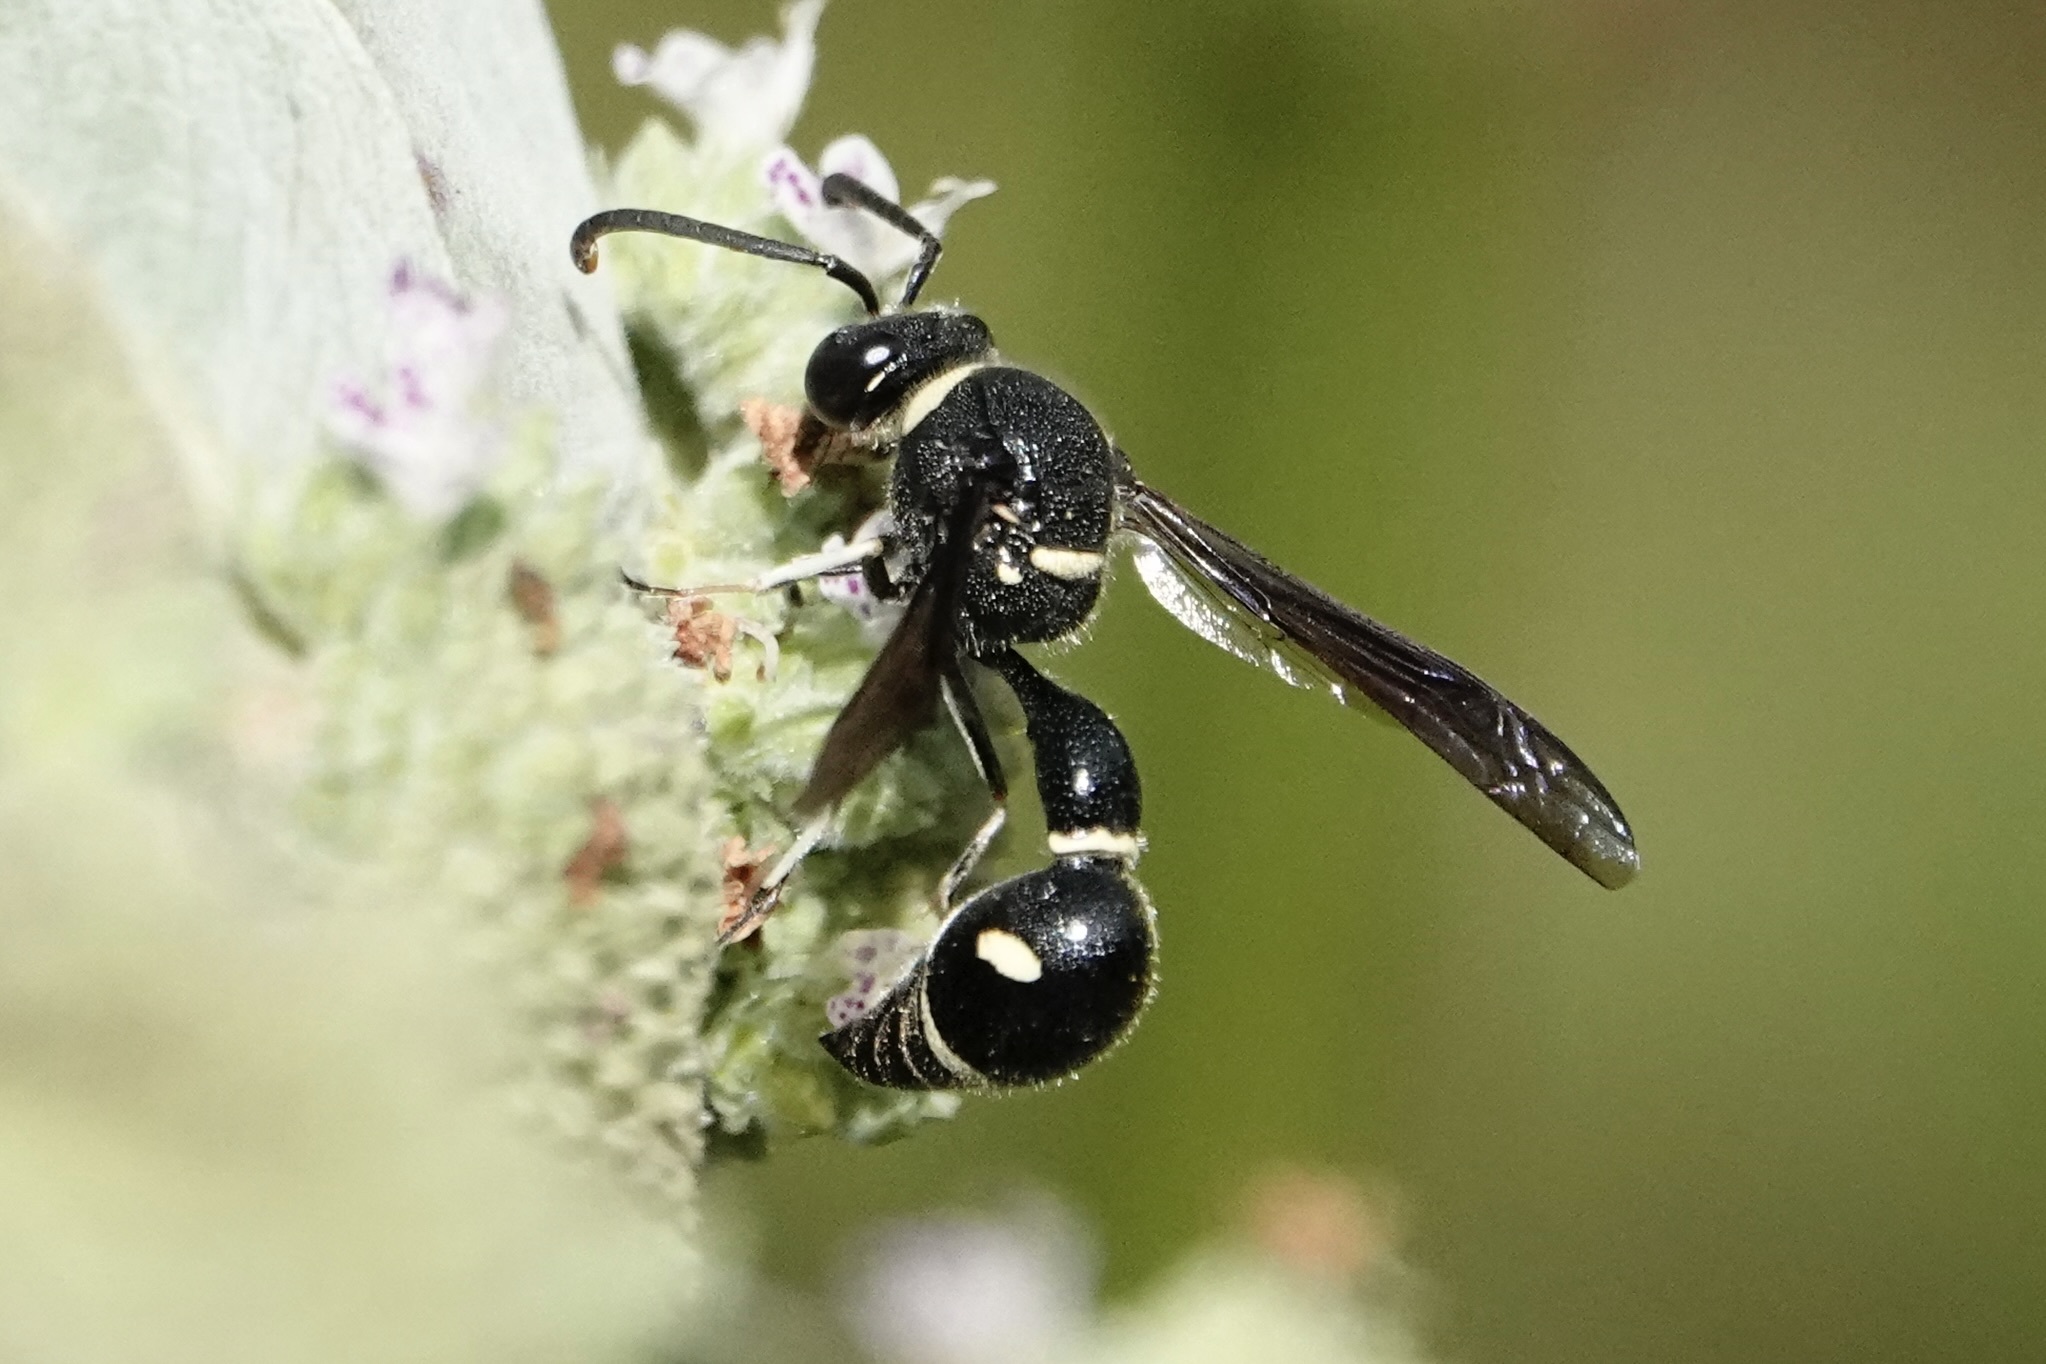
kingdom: Animalia
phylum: Arthropoda
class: Insecta
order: Hymenoptera
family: Vespidae
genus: Eumenes
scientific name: Eumenes fraternus
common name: Fraternal potter wasp
